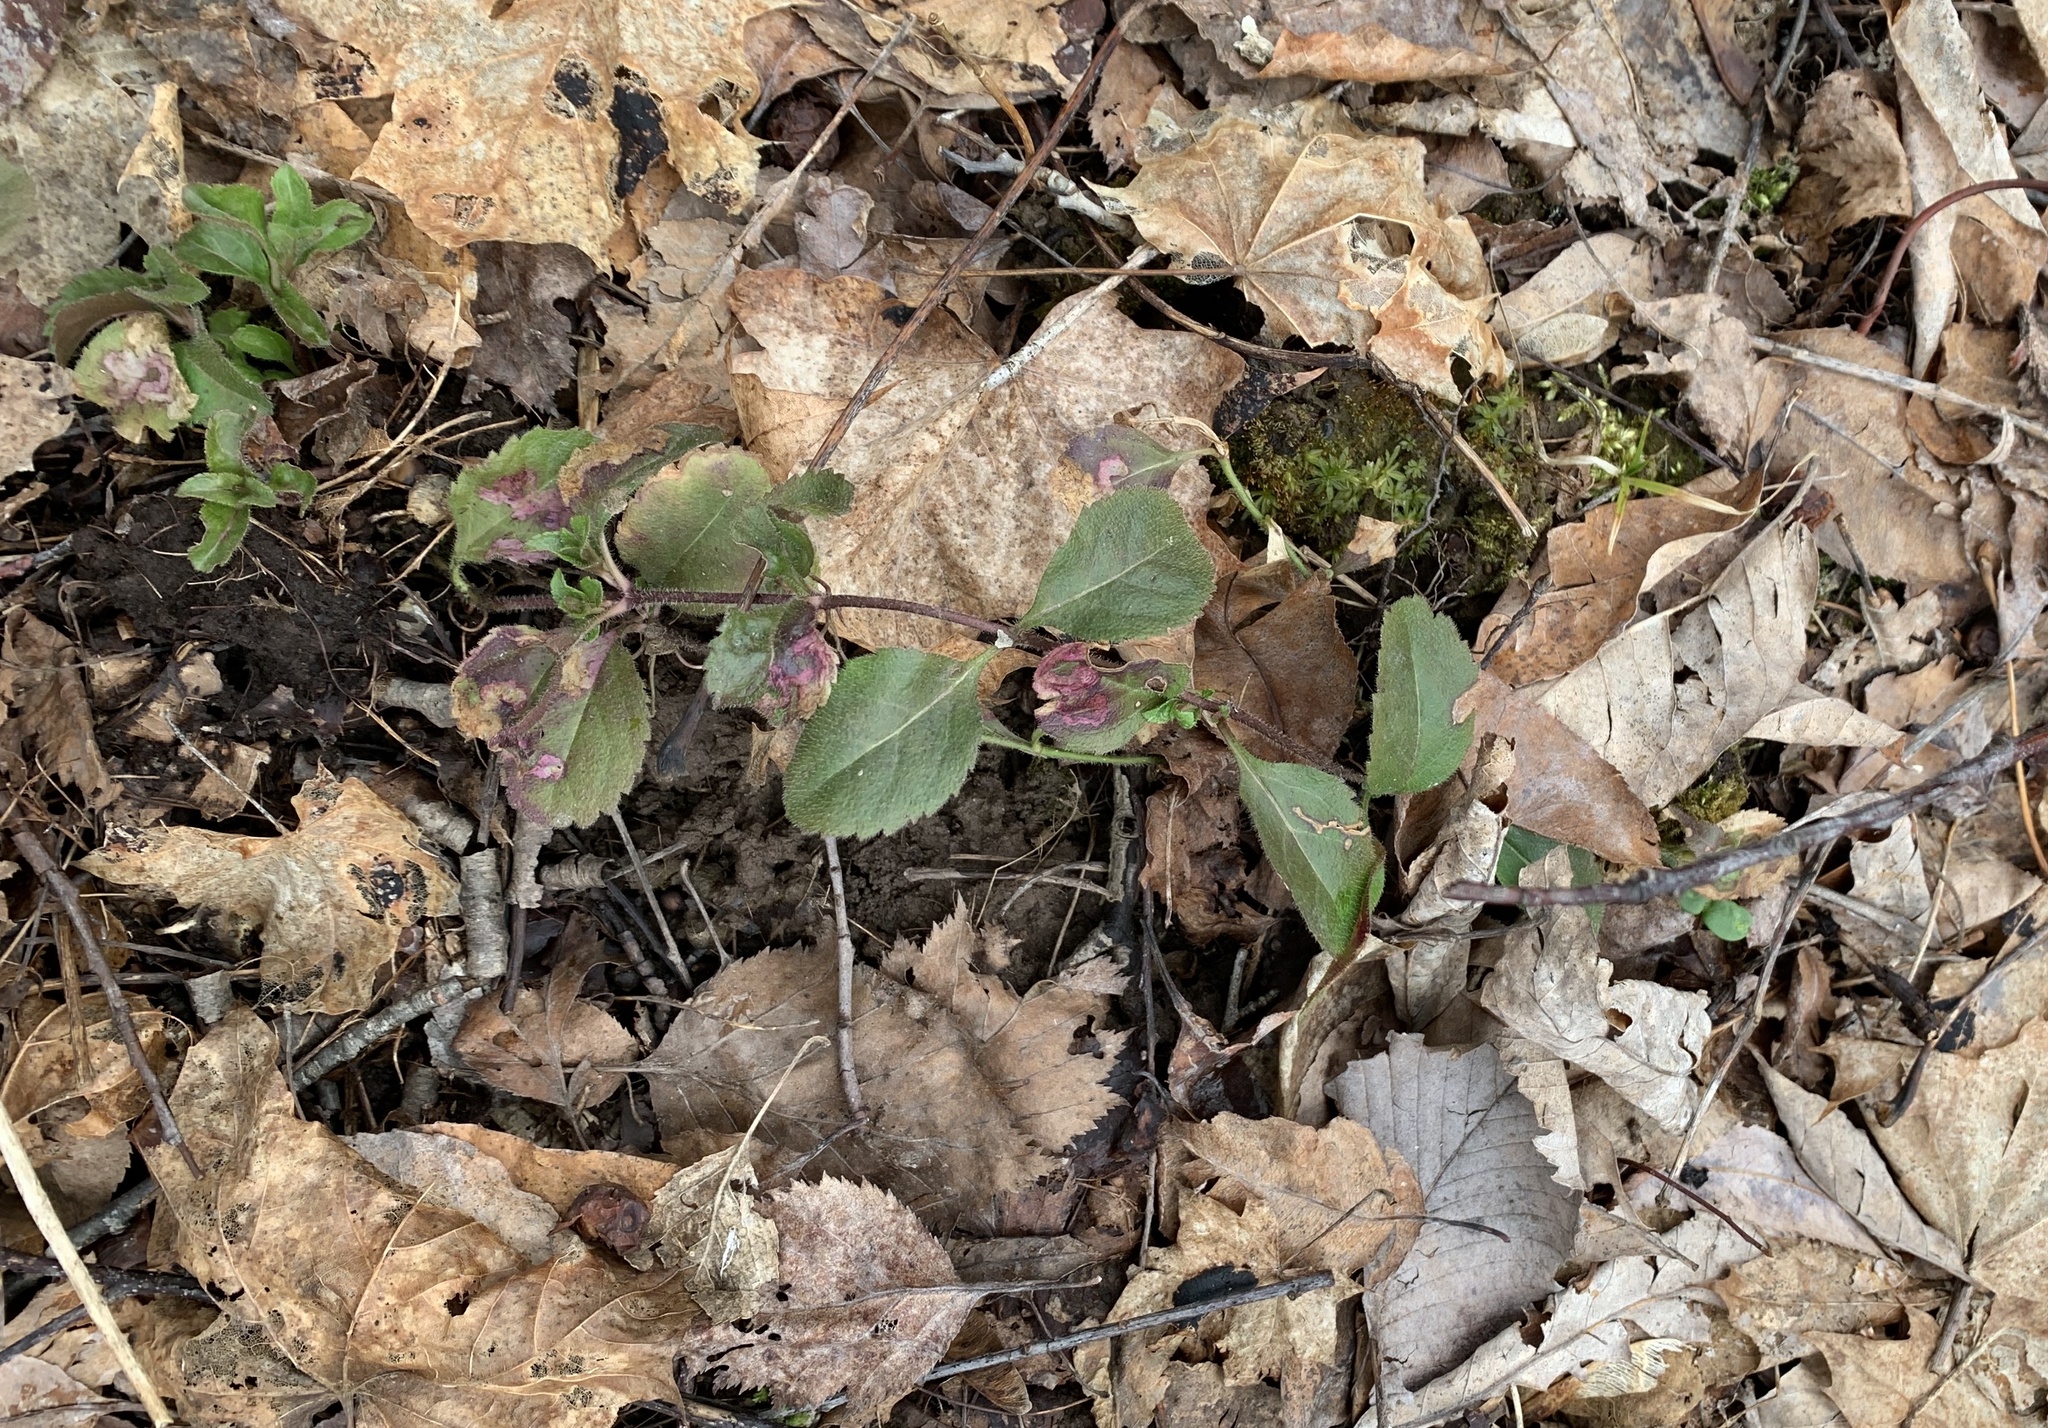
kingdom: Plantae
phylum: Tracheophyta
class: Magnoliopsida
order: Lamiales
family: Plantaginaceae
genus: Veronica
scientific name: Veronica officinalis
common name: Common speedwell
